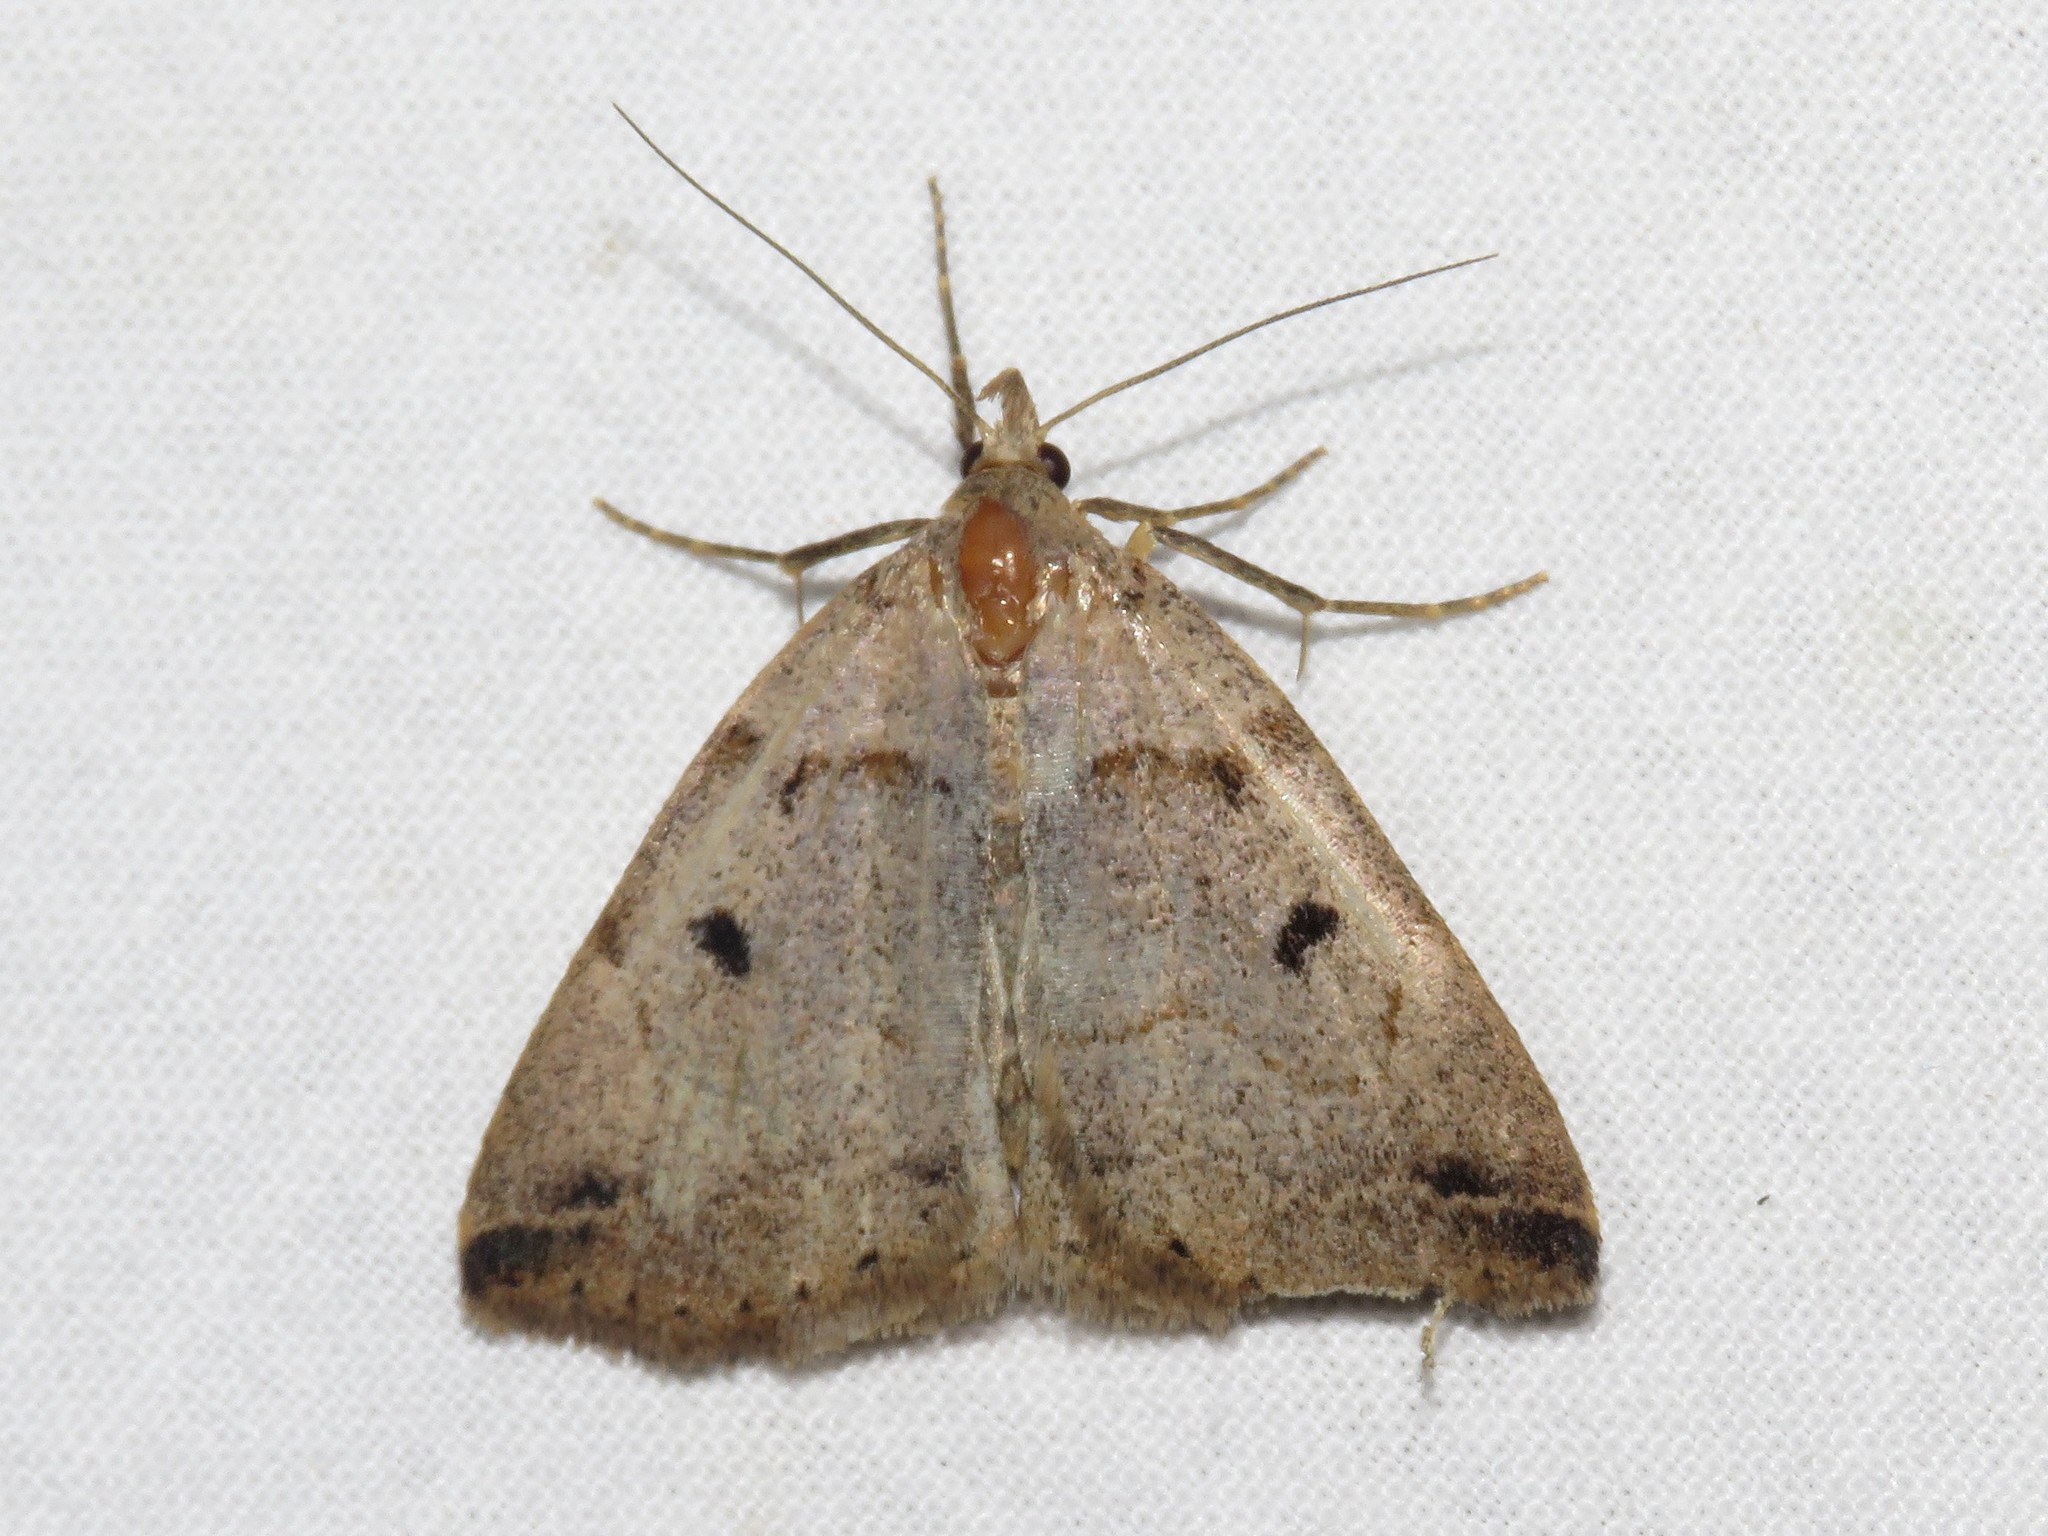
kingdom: Animalia
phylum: Arthropoda
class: Insecta
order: Lepidoptera
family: Erebidae
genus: Zanclognatha
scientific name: Zanclognatha laevigata
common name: Variable fan-foot
